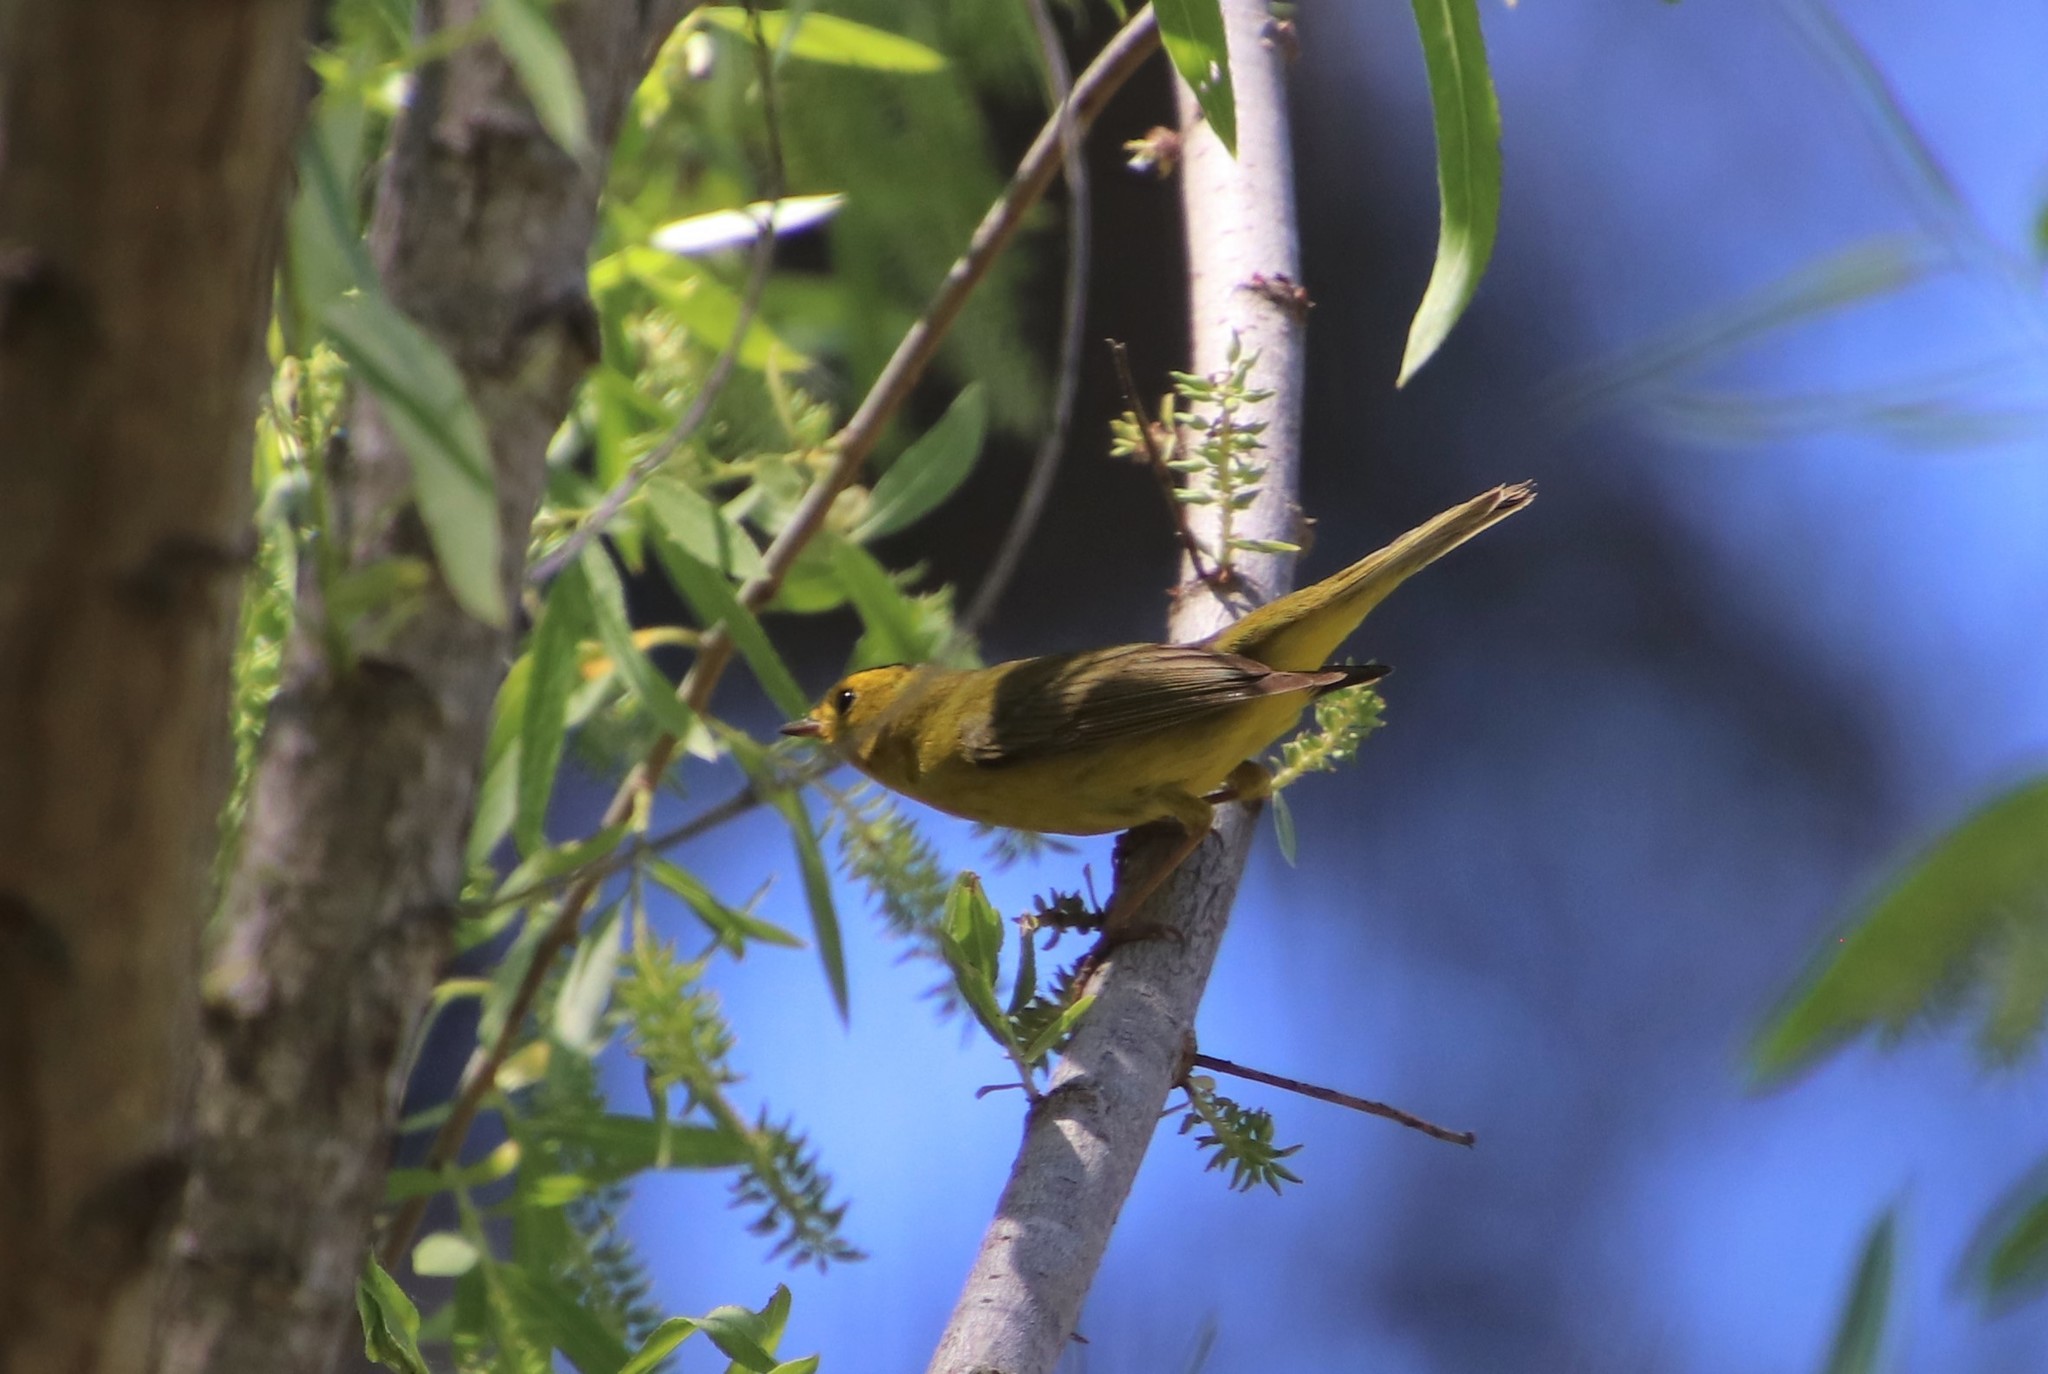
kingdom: Animalia
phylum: Chordata
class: Aves
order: Passeriformes
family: Parulidae
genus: Cardellina
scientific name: Cardellina pusilla
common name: Wilson's warbler
